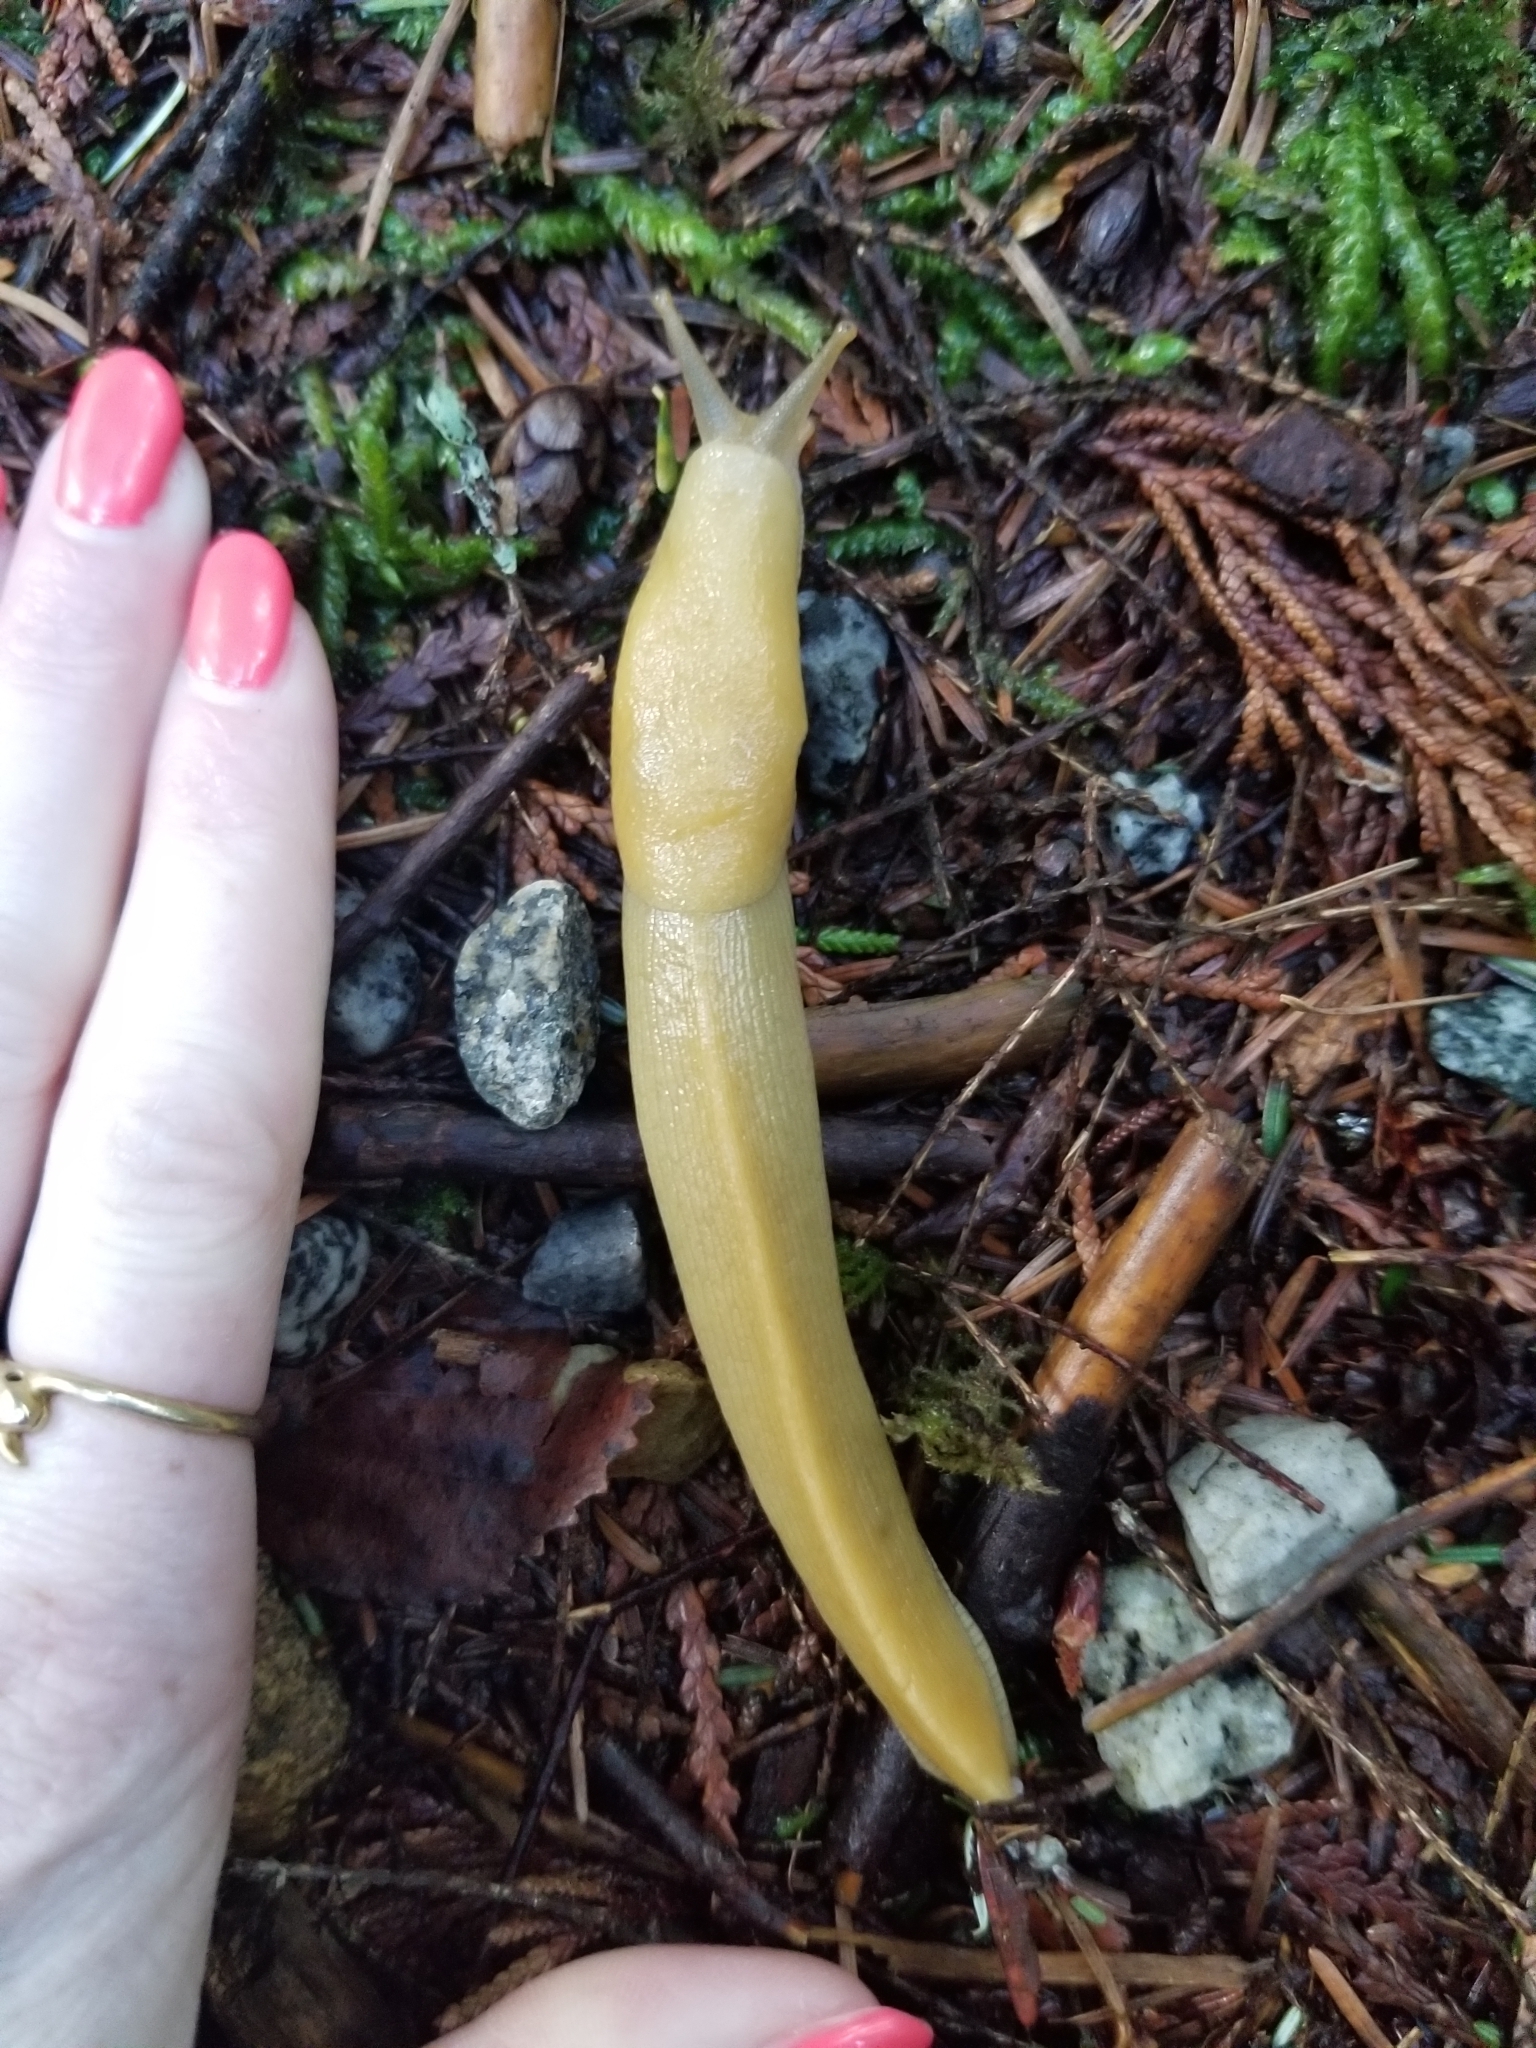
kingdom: Animalia
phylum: Mollusca
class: Gastropoda
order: Stylommatophora
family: Ariolimacidae
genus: Ariolimax
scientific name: Ariolimax columbianus
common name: Pacific banana slug
